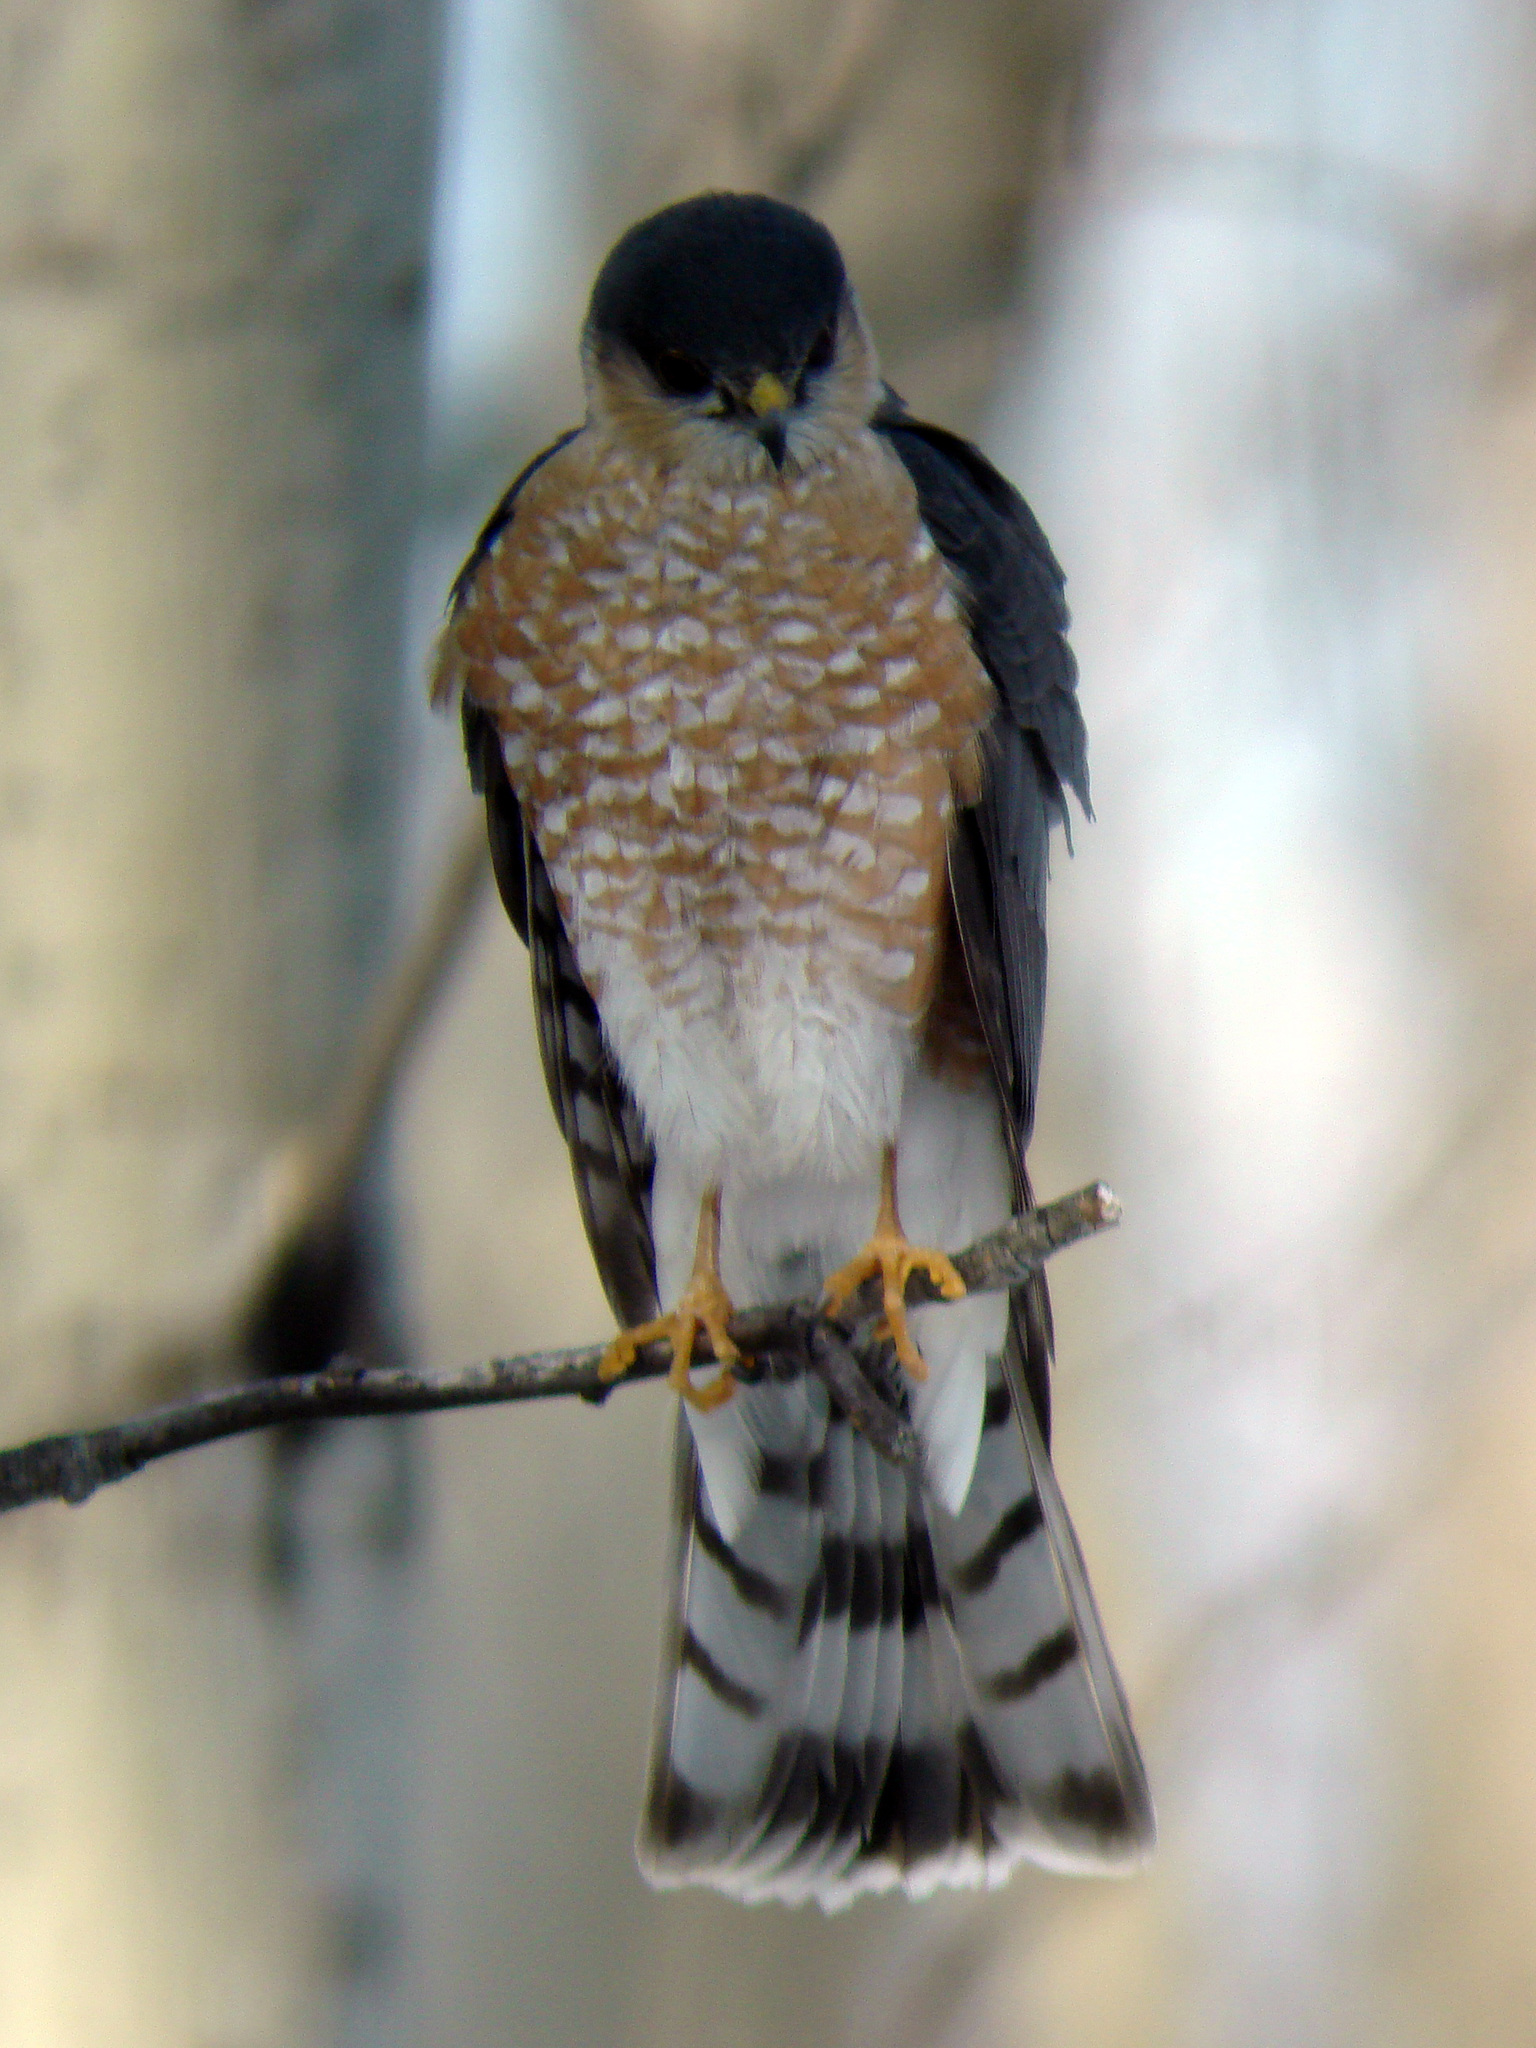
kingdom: Animalia
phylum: Chordata
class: Aves
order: Accipitriformes
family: Accipitridae
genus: Accipiter
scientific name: Accipiter striatus
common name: Sharp-shinned hawk
